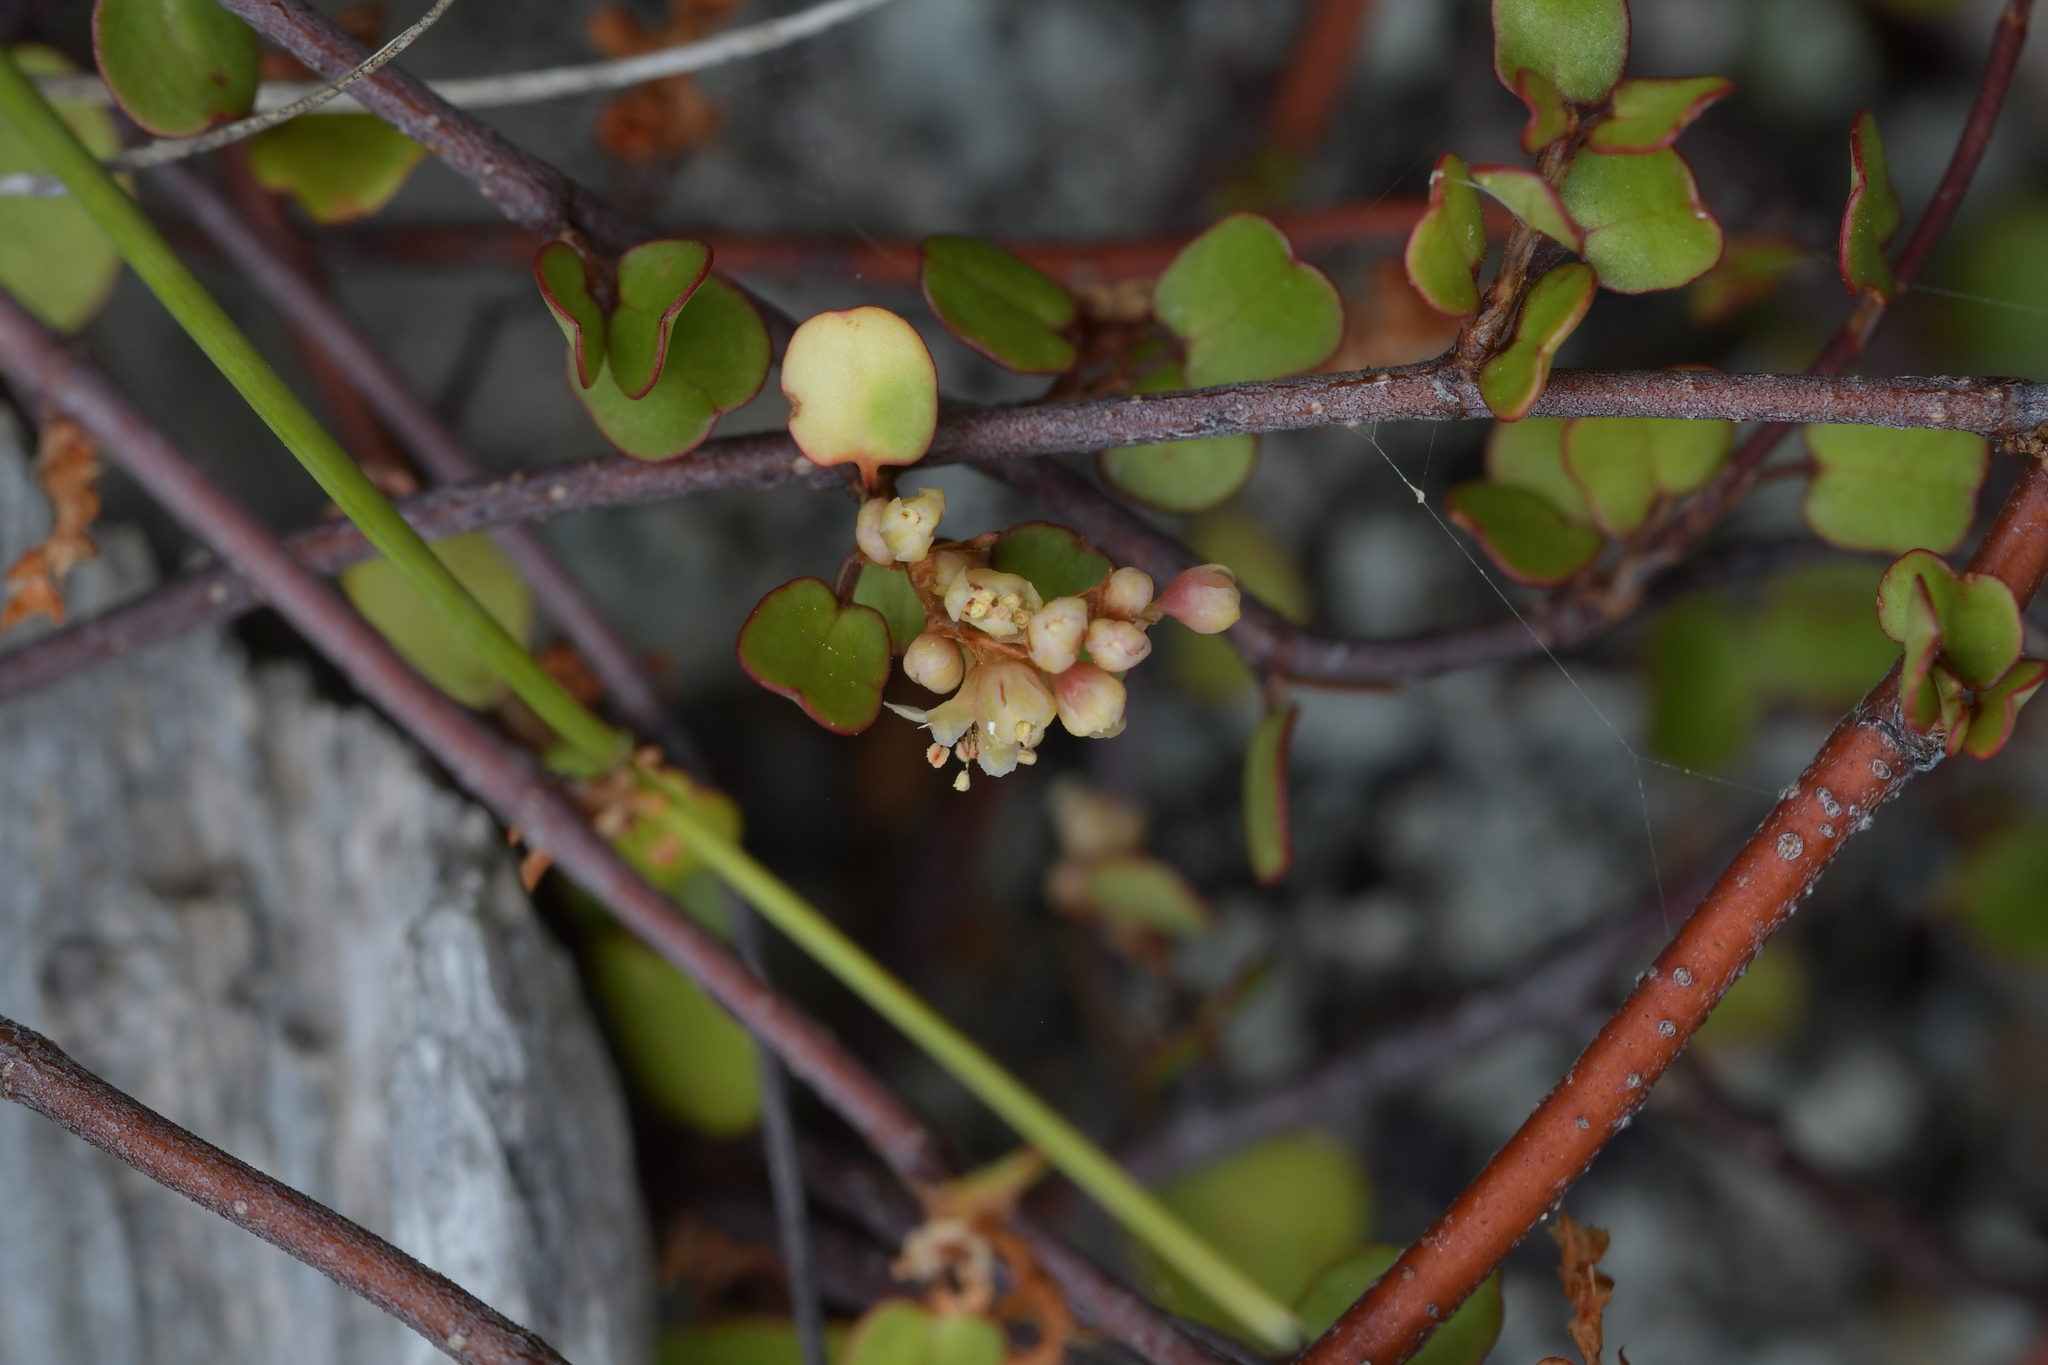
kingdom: Plantae
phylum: Tracheophyta
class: Magnoliopsida
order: Caryophyllales
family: Polygonaceae
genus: Muehlenbeckia
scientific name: Muehlenbeckia complexa
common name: Wireplant
